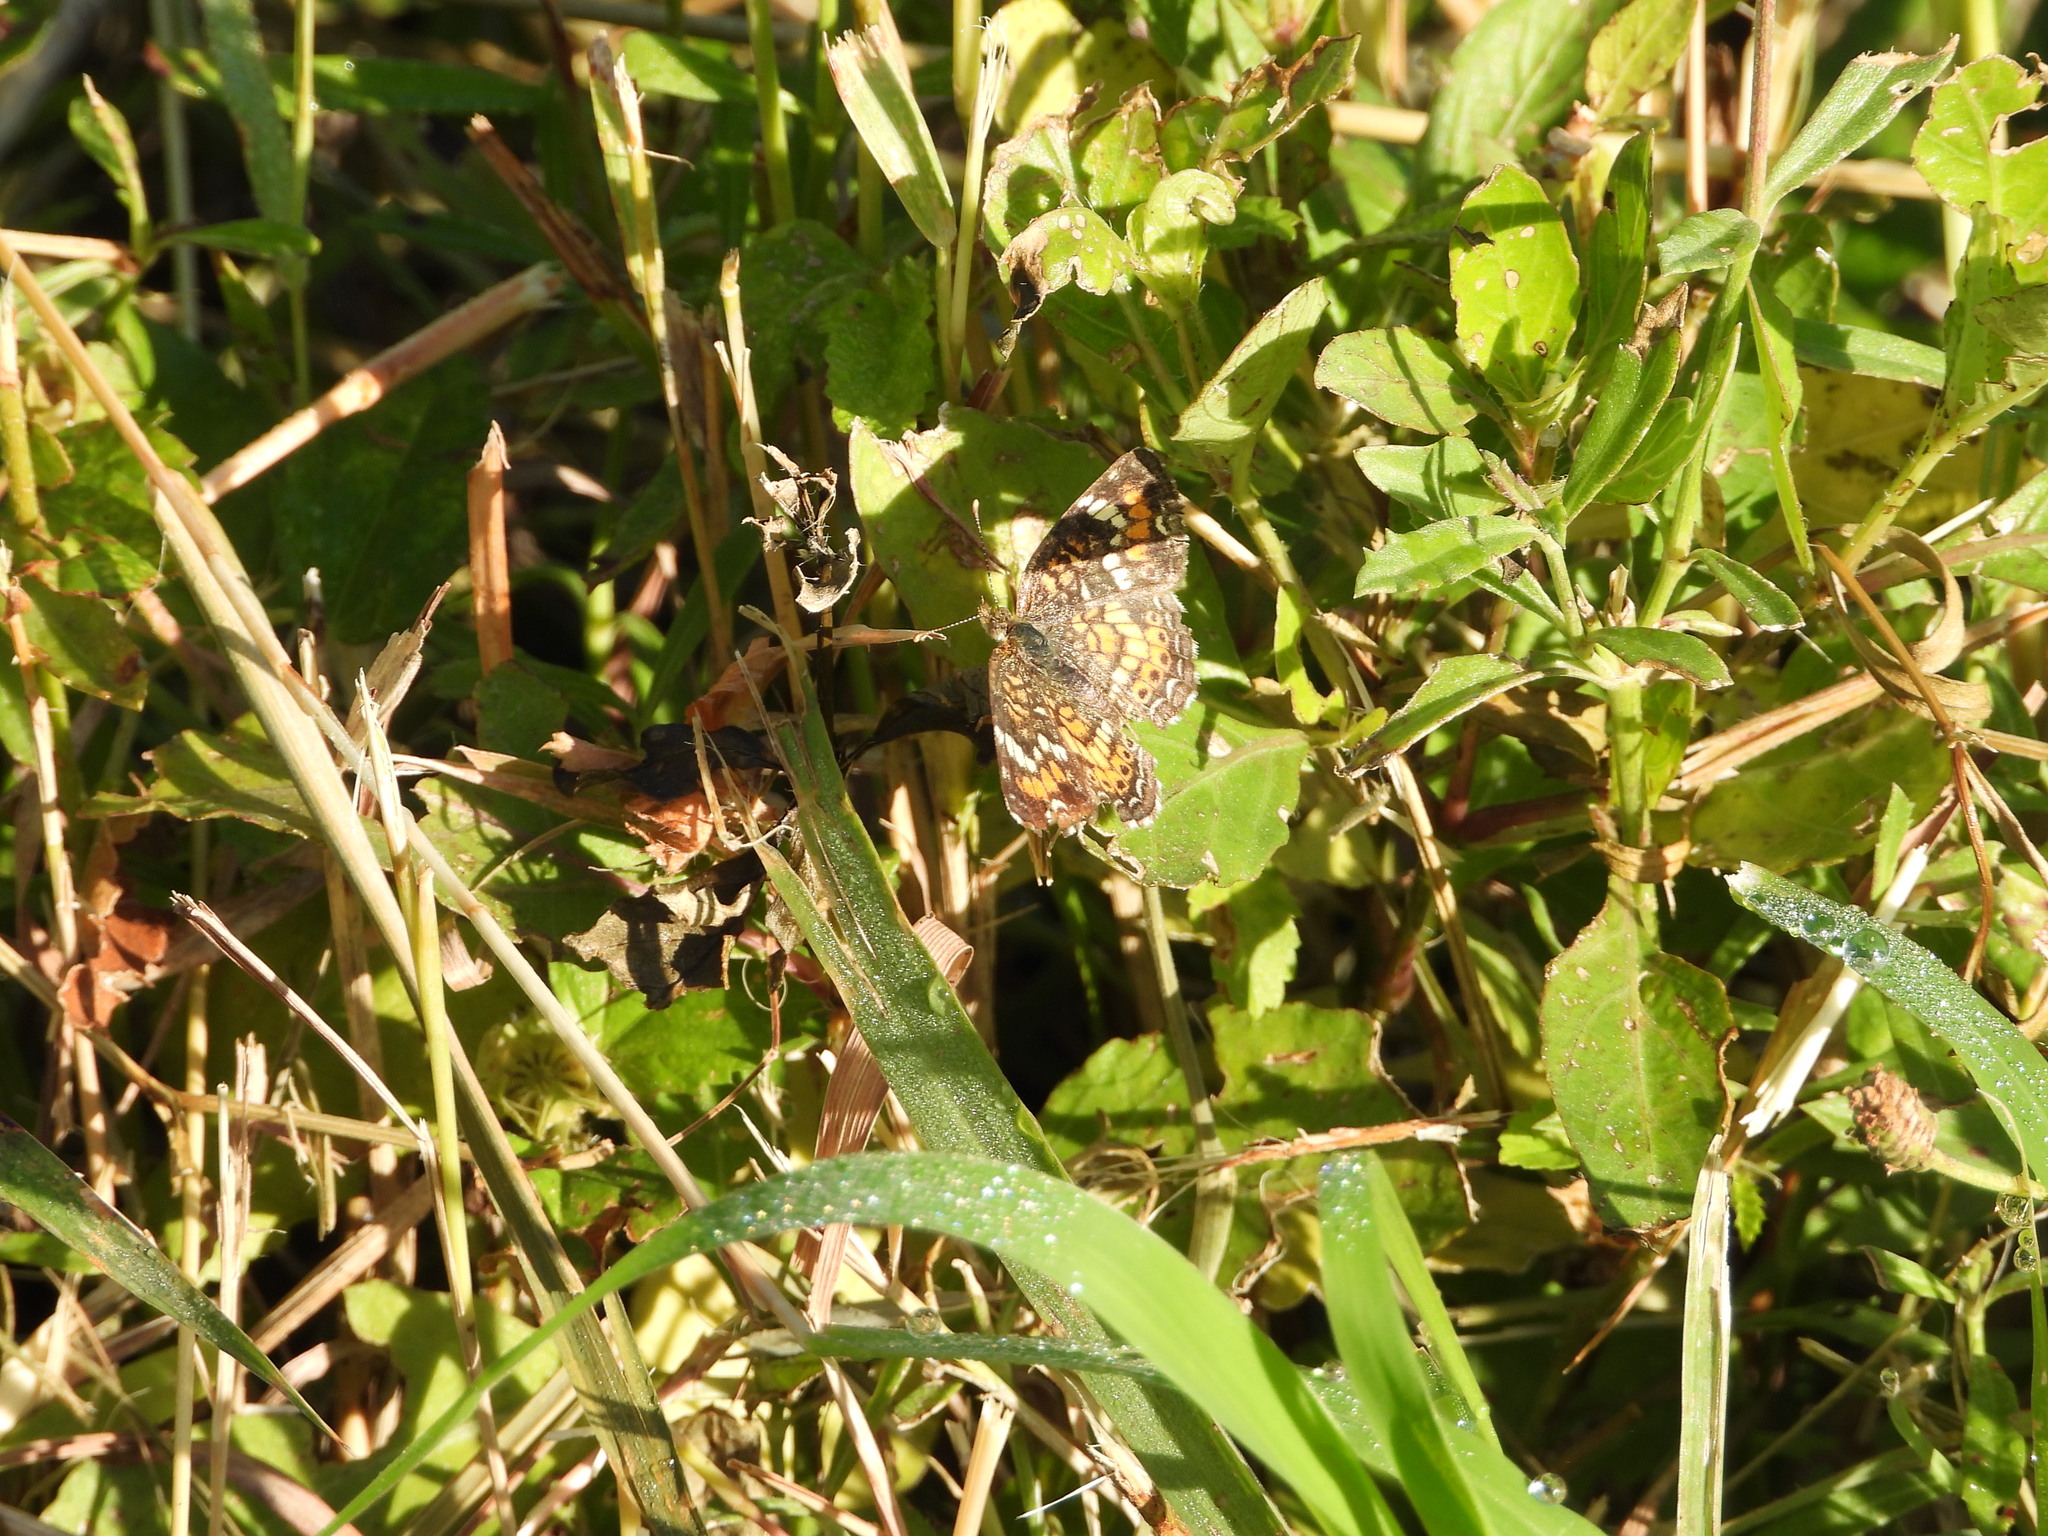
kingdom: Animalia
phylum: Arthropoda
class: Insecta
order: Lepidoptera
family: Nymphalidae
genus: Phyciodes
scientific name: Phyciodes phaon
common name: Phaon crescent
